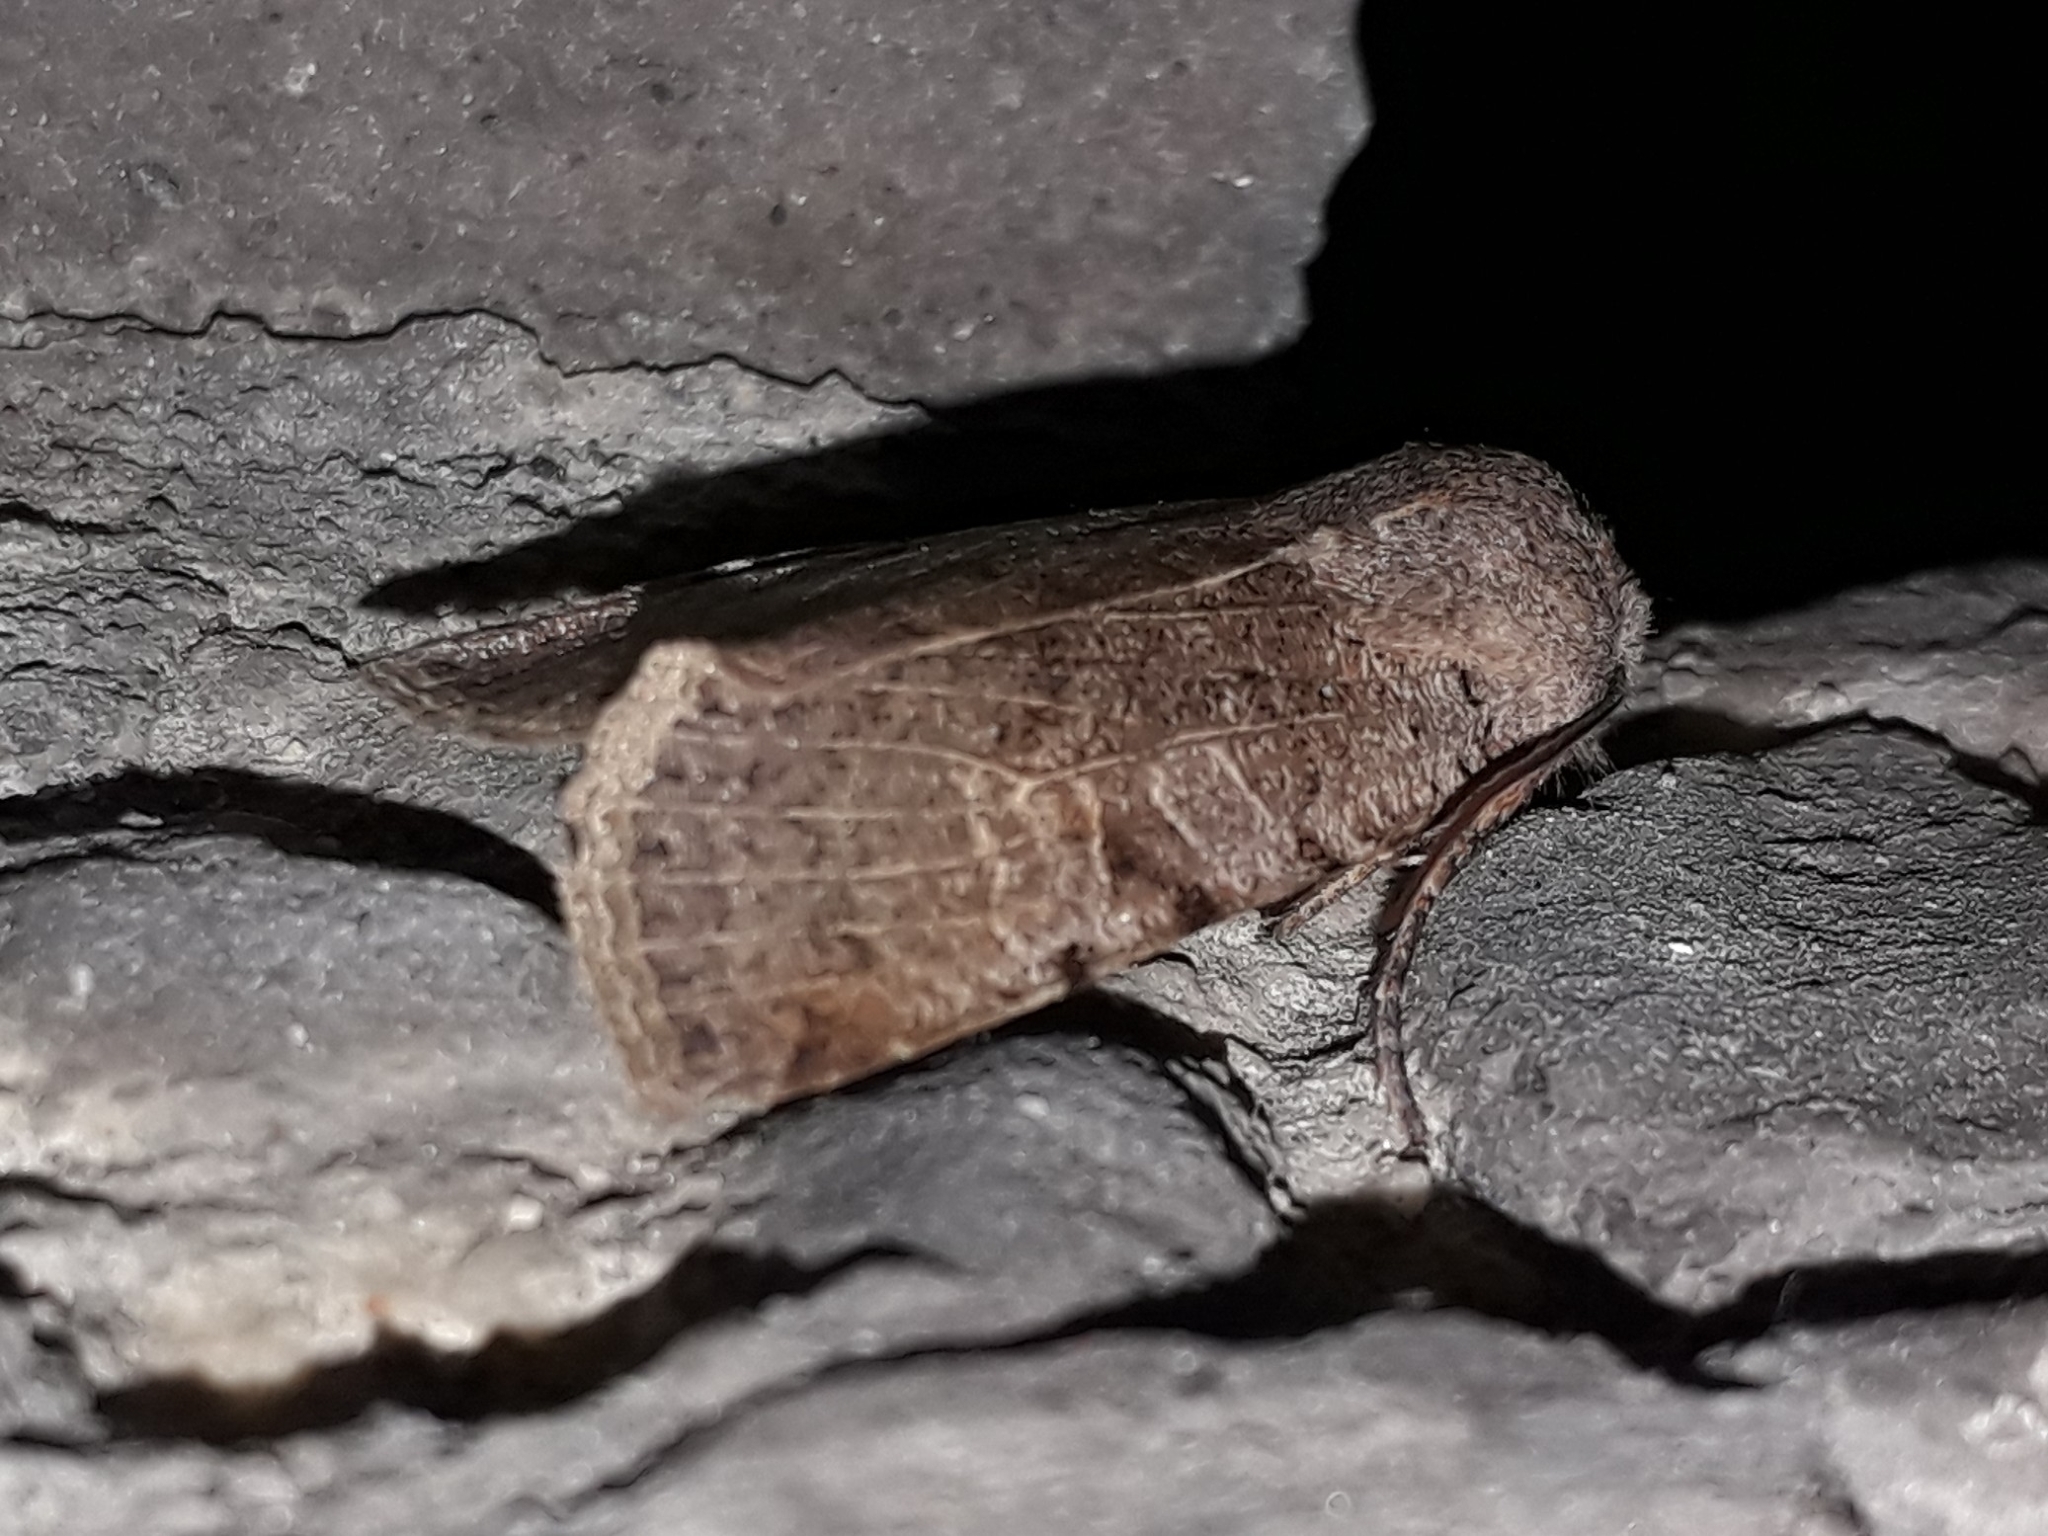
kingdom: Animalia
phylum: Arthropoda
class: Insecta
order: Lepidoptera
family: Noctuidae
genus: Conistra
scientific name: Conistra rubiginosa
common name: Black-spotted chestnut
